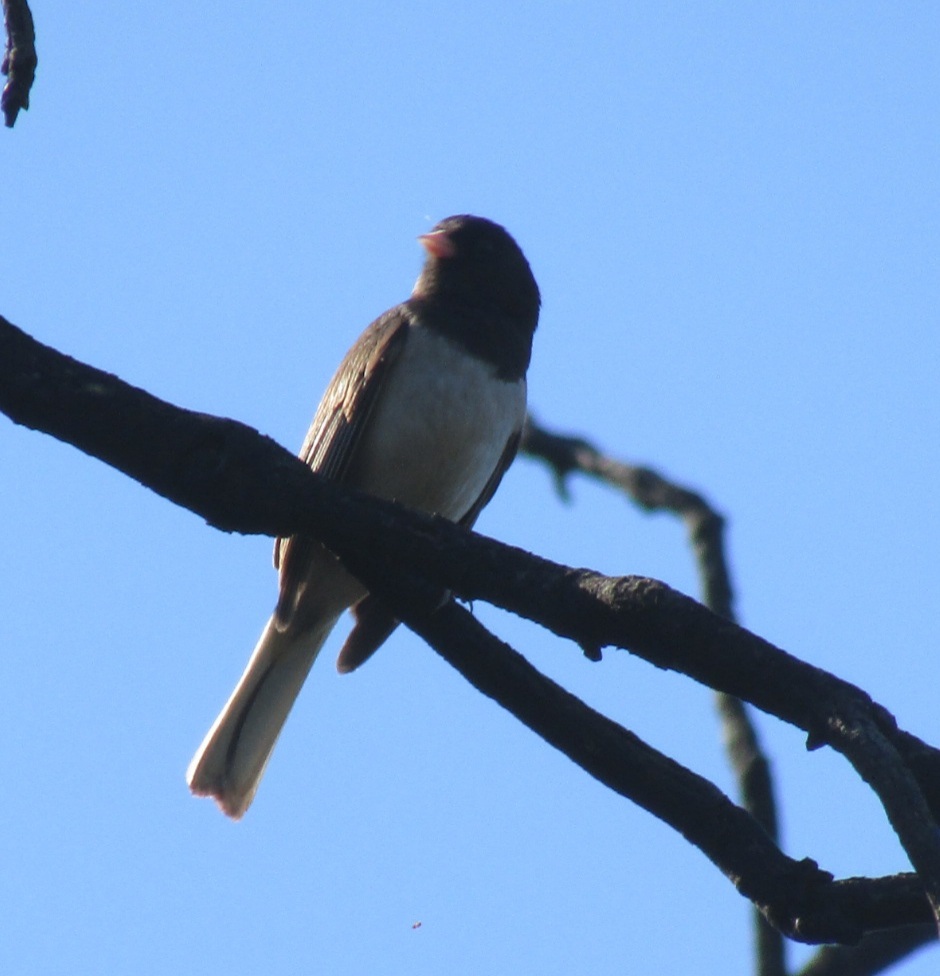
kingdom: Animalia
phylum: Chordata
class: Aves
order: Passeriformes
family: Passerellidae
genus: Junco
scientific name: Junco hyemalis
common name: Dark-eyed junco
